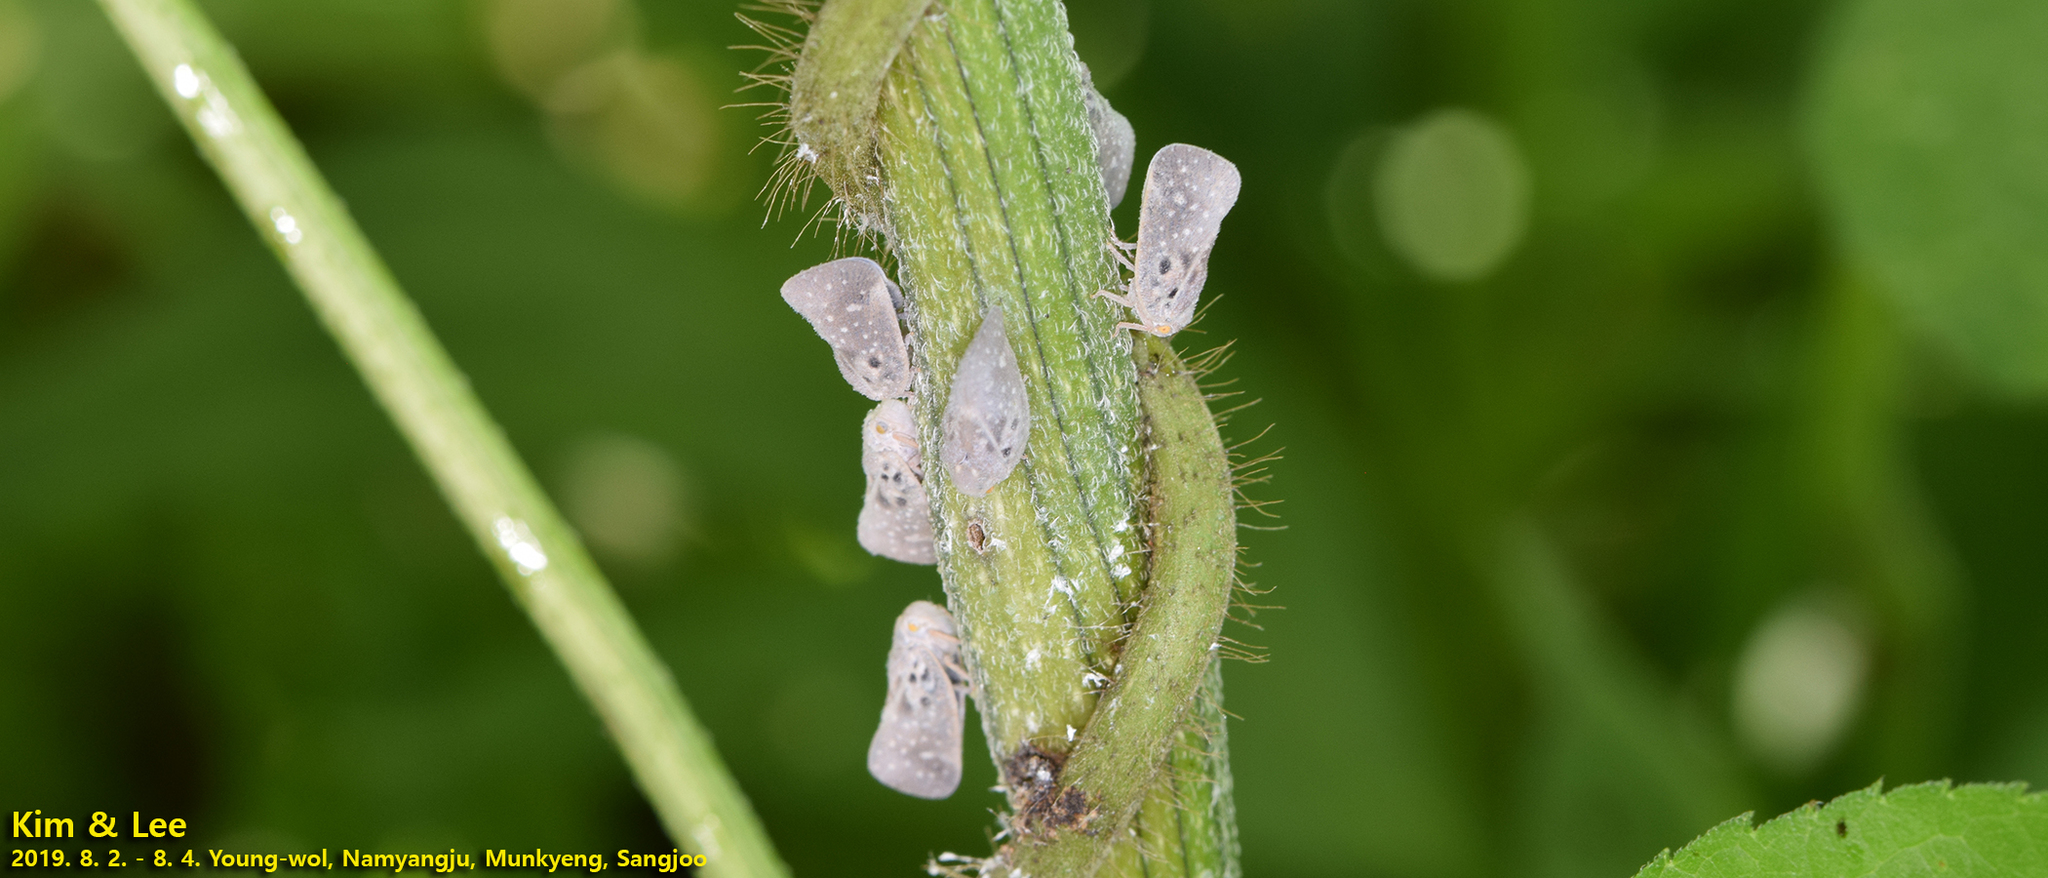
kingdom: Animalia
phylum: Arthropoda
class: Insecta
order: Hemiptera
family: Flatidae
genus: Metcalfa
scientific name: Metcalfa pruinosa
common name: Citrus flatid planthopper
